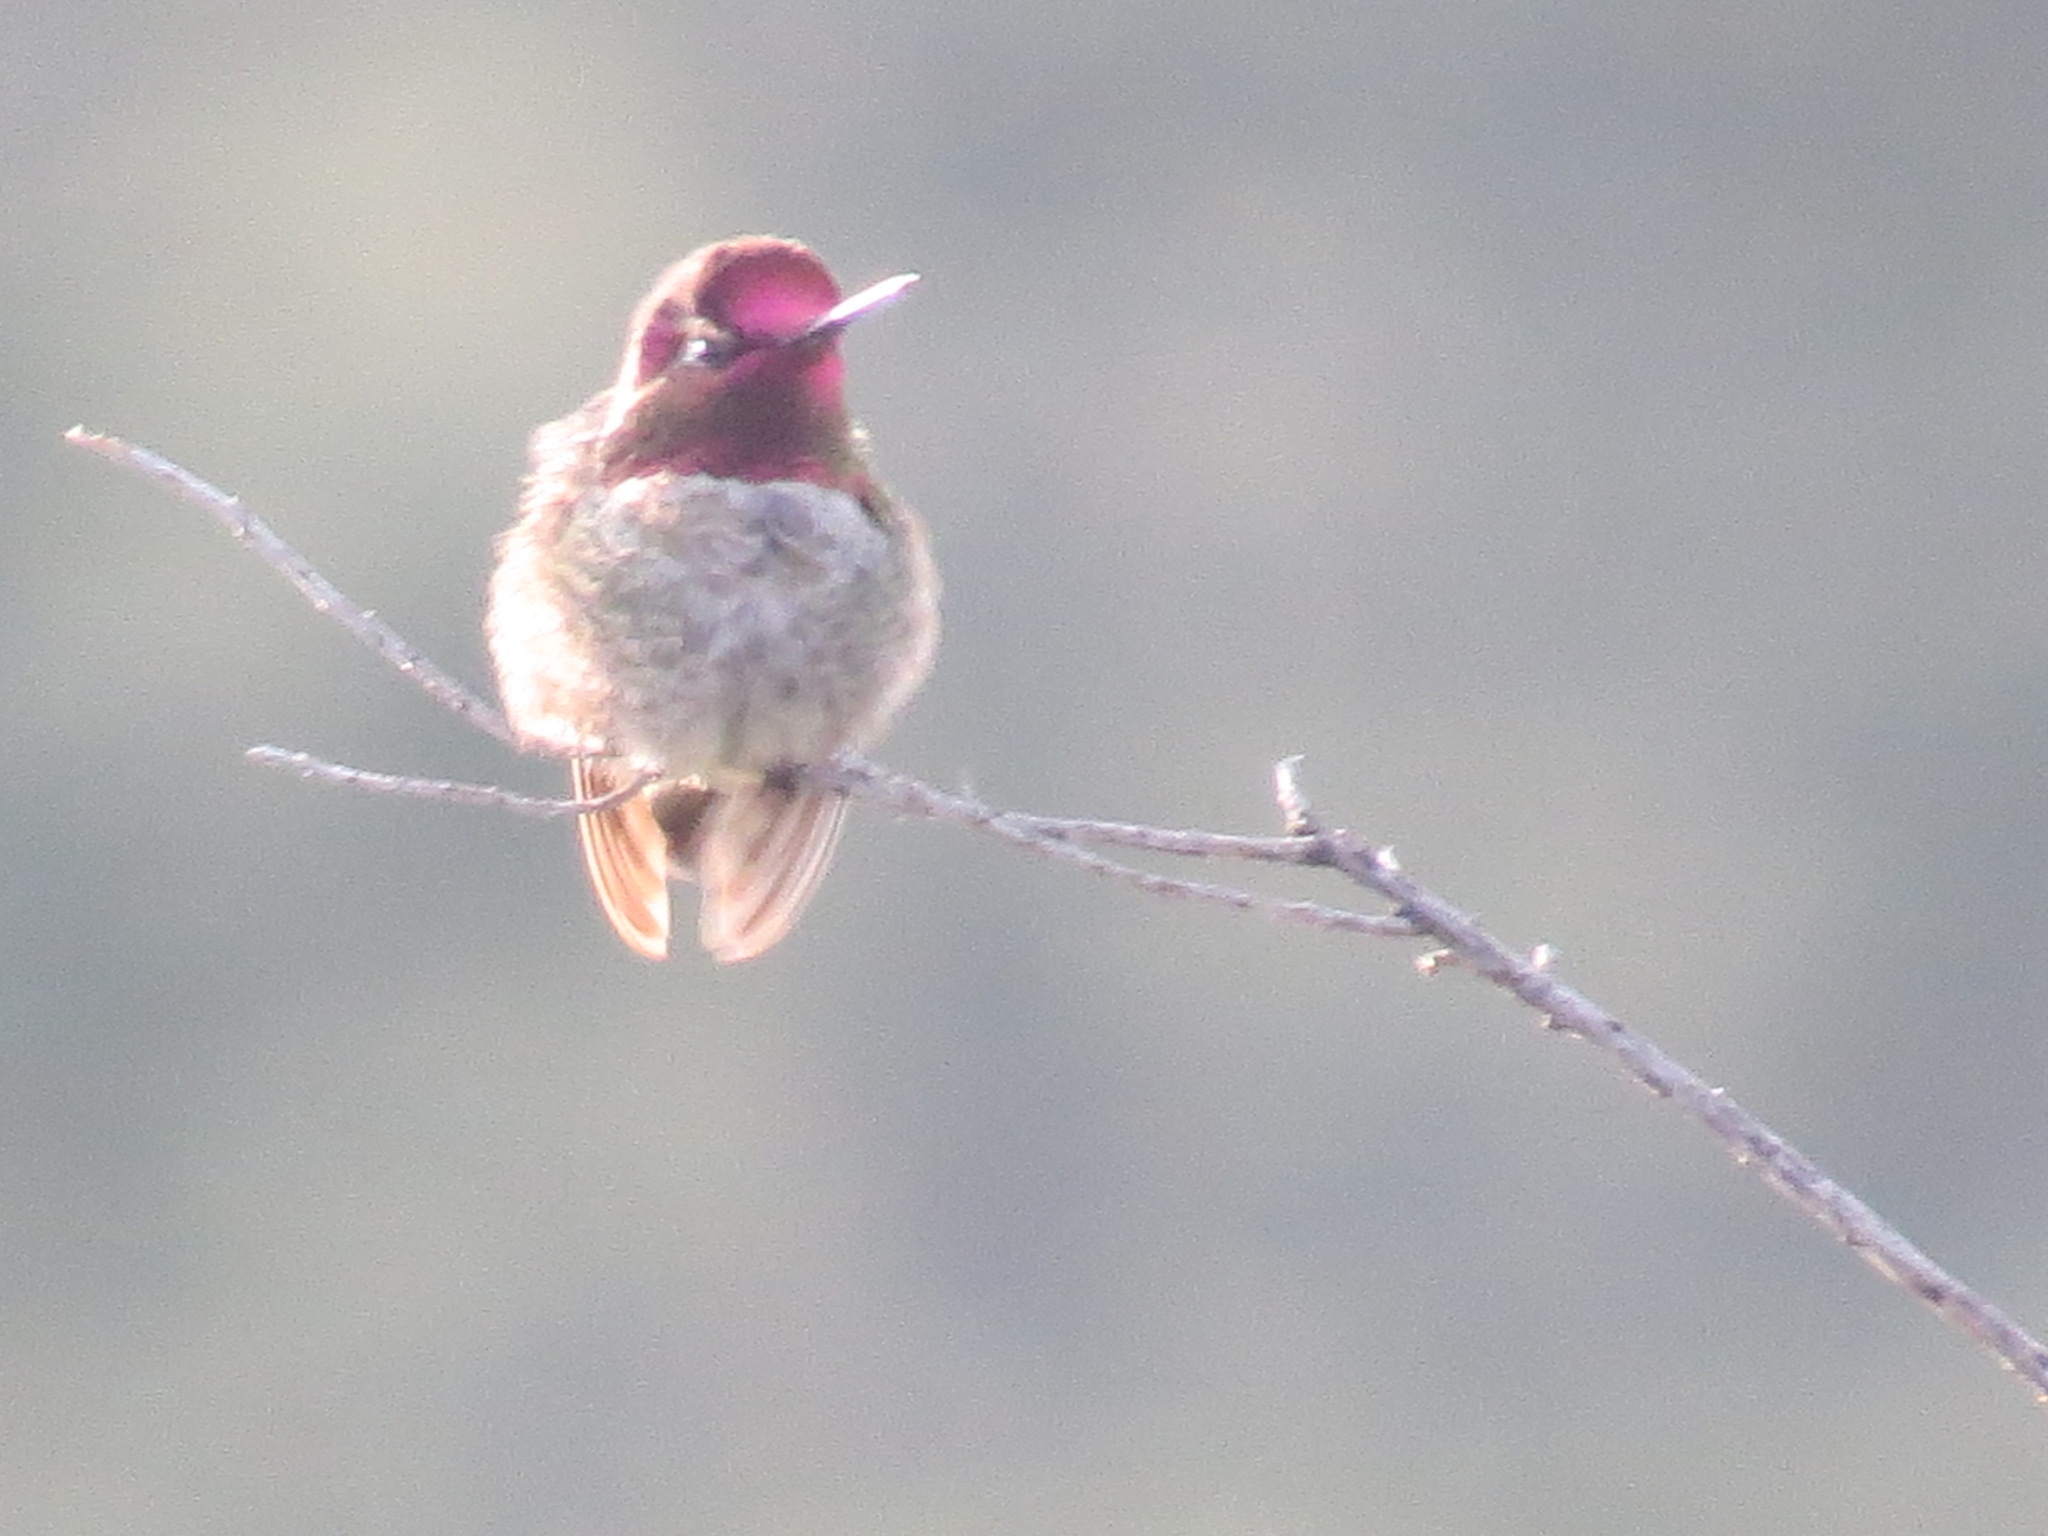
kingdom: Animalia
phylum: Chordata
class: Aves
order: Apodiformes
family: Trochilidae
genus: Calypte
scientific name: Calypte anna
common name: Anna's hummingbird
